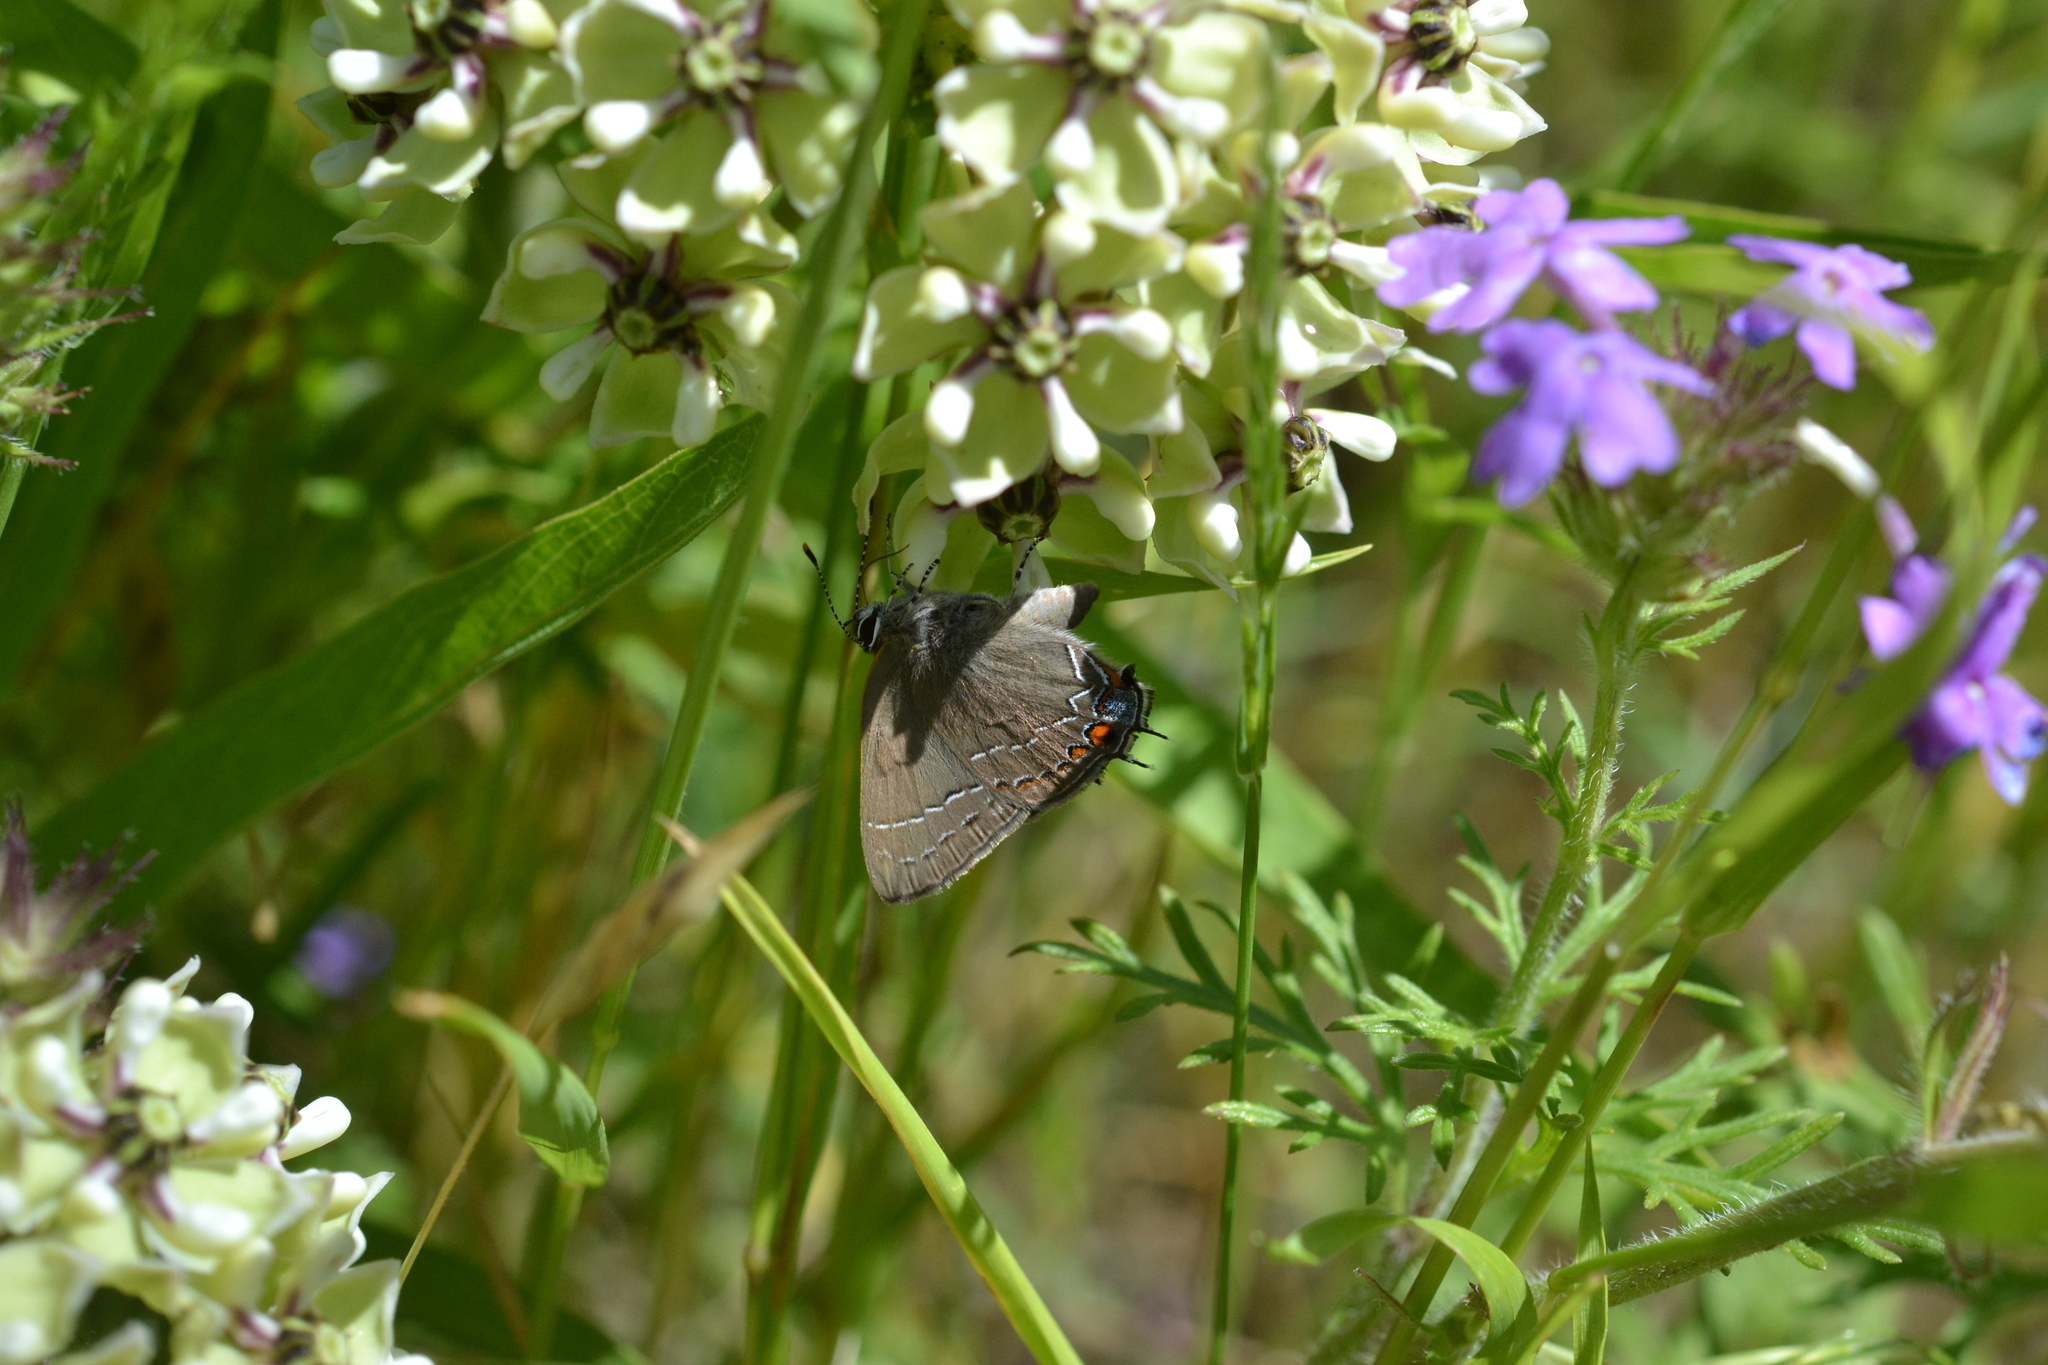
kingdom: Animalia
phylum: Arthropoda
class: Insecta
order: Lepidoptera
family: Lycaenidae
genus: Fixsenia
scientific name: Fixsenia favonius
